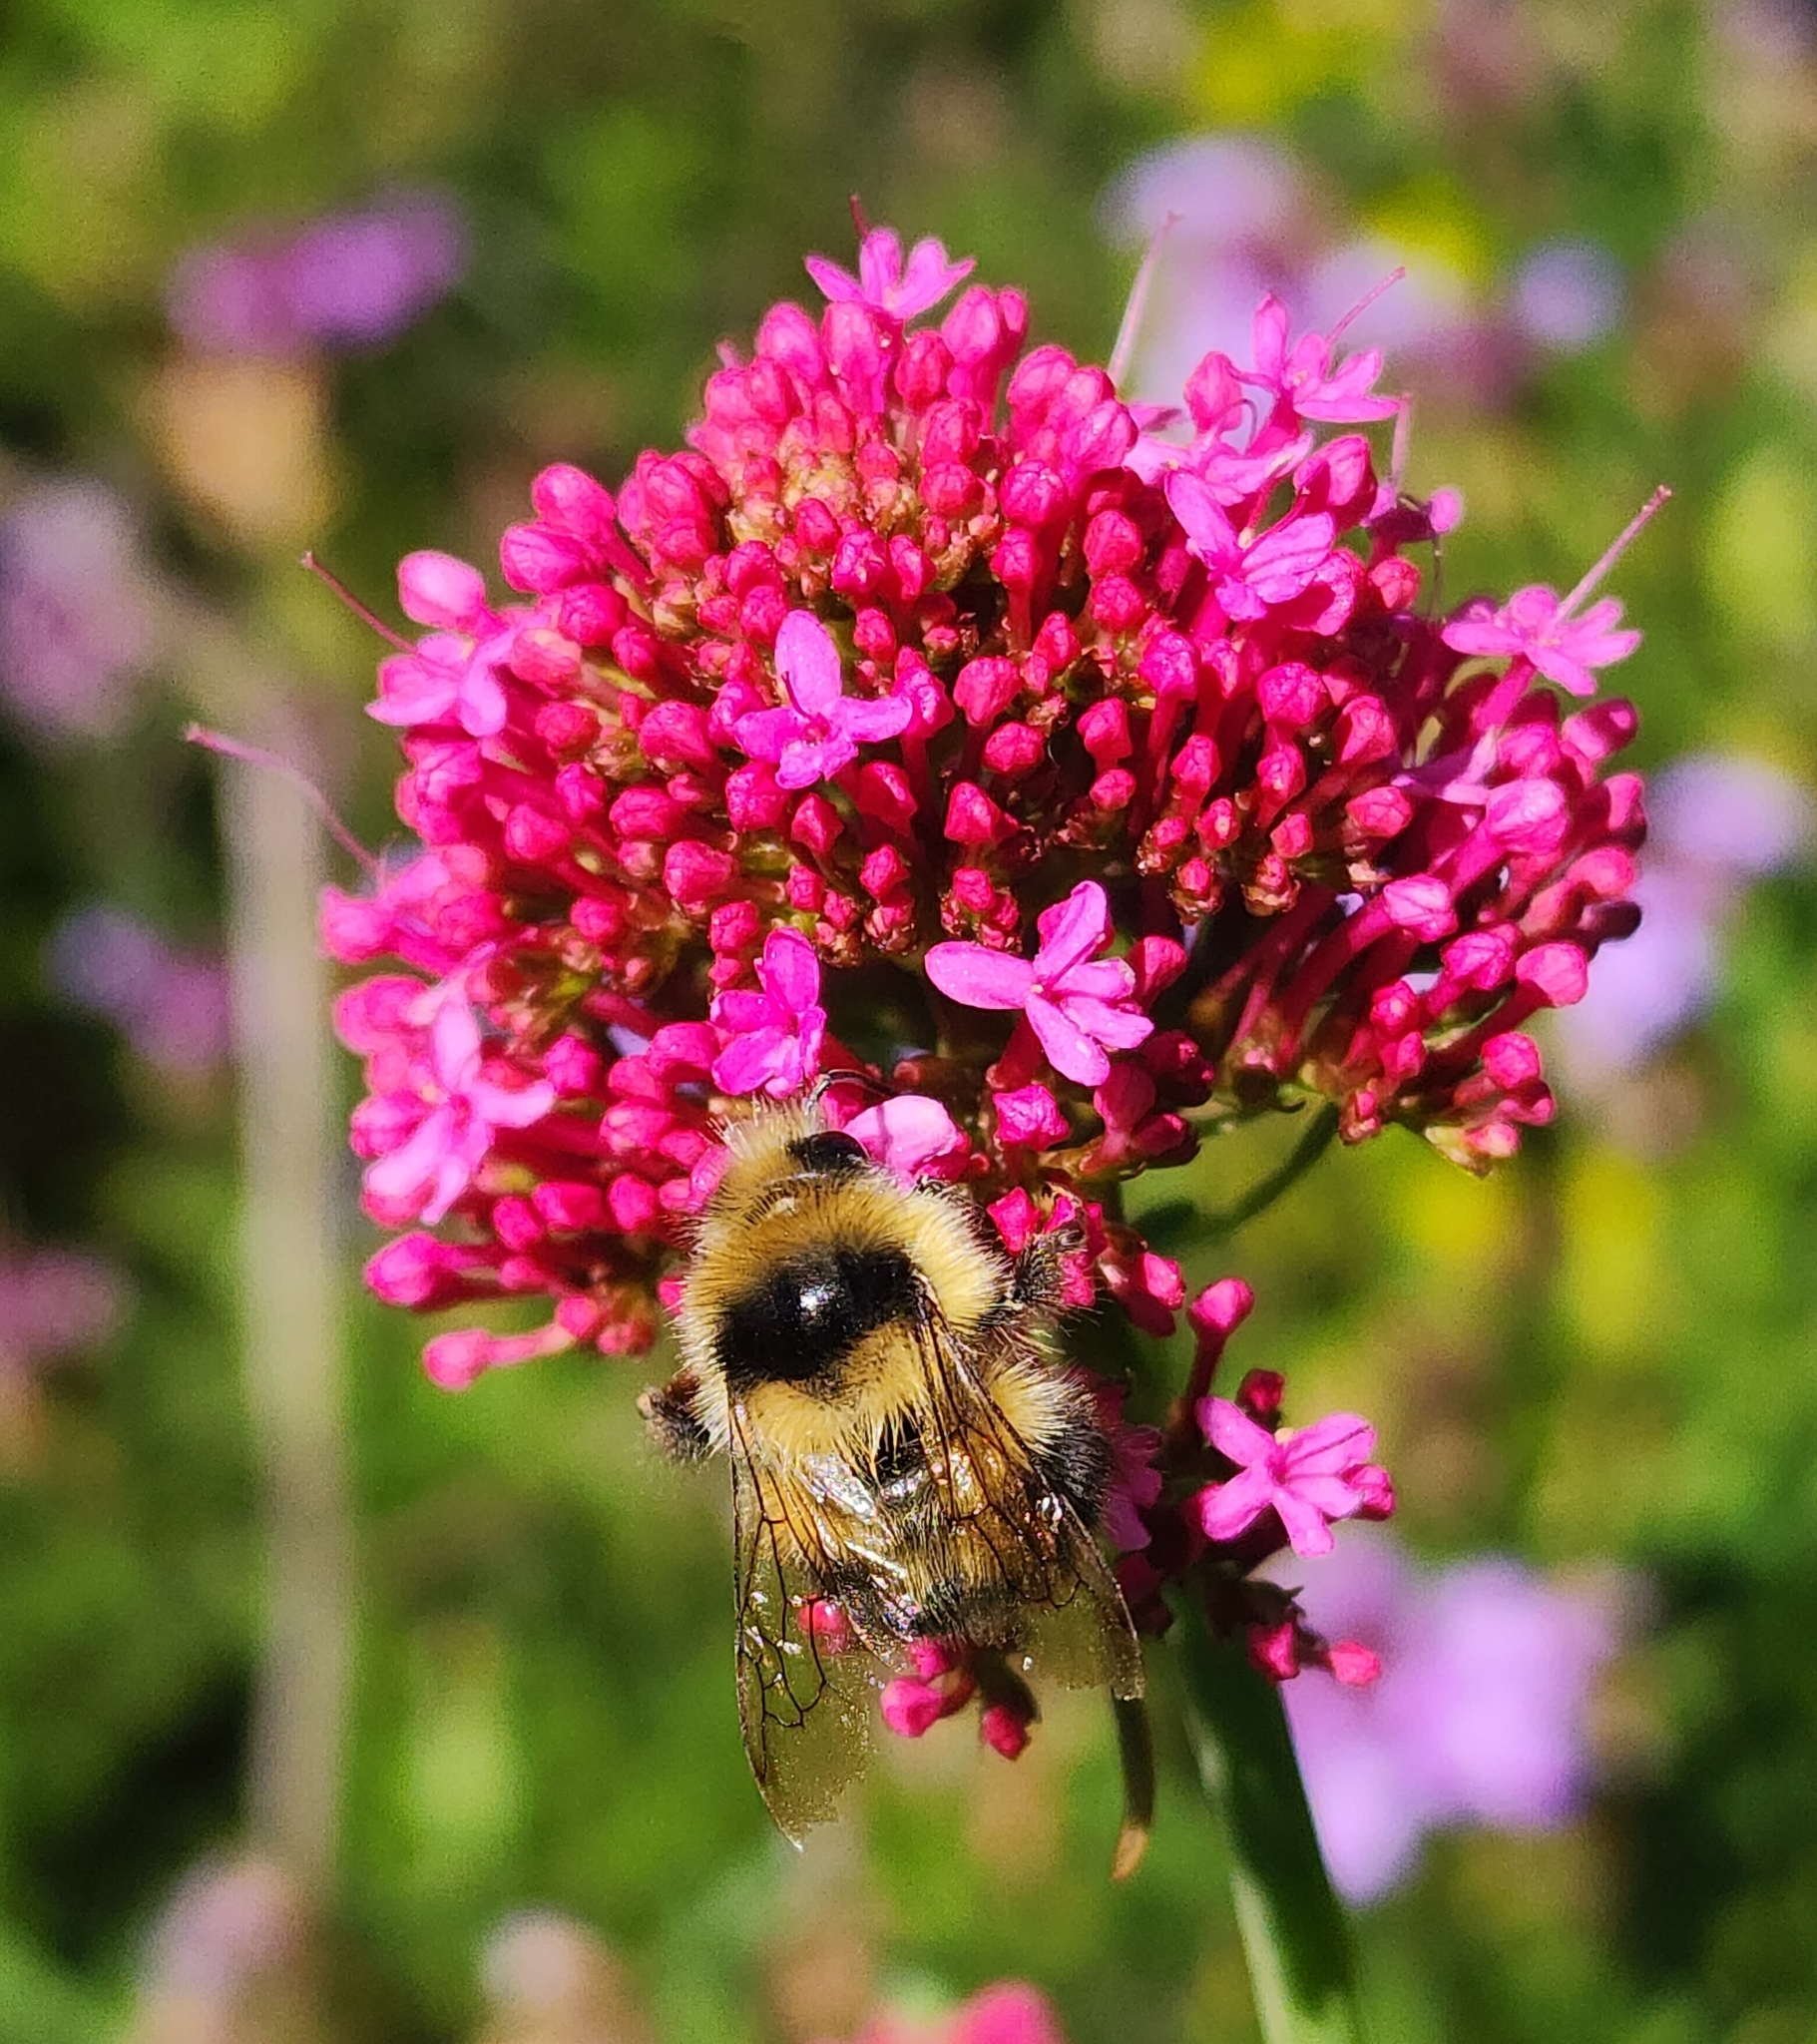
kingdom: Animalia
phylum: Arthropoda
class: Insecta
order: Hymenoptera
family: Apidae
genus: Bombus
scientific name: Bombus melanopygus
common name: Black tail bumble bee
